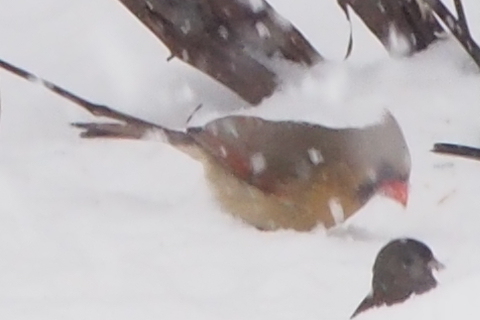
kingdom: Animalia
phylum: Chordata
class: Aves
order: Passeriformes
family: Cardinalidae
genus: Cardinalis
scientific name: Cardinalis cardinalis
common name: Northern cardinal
